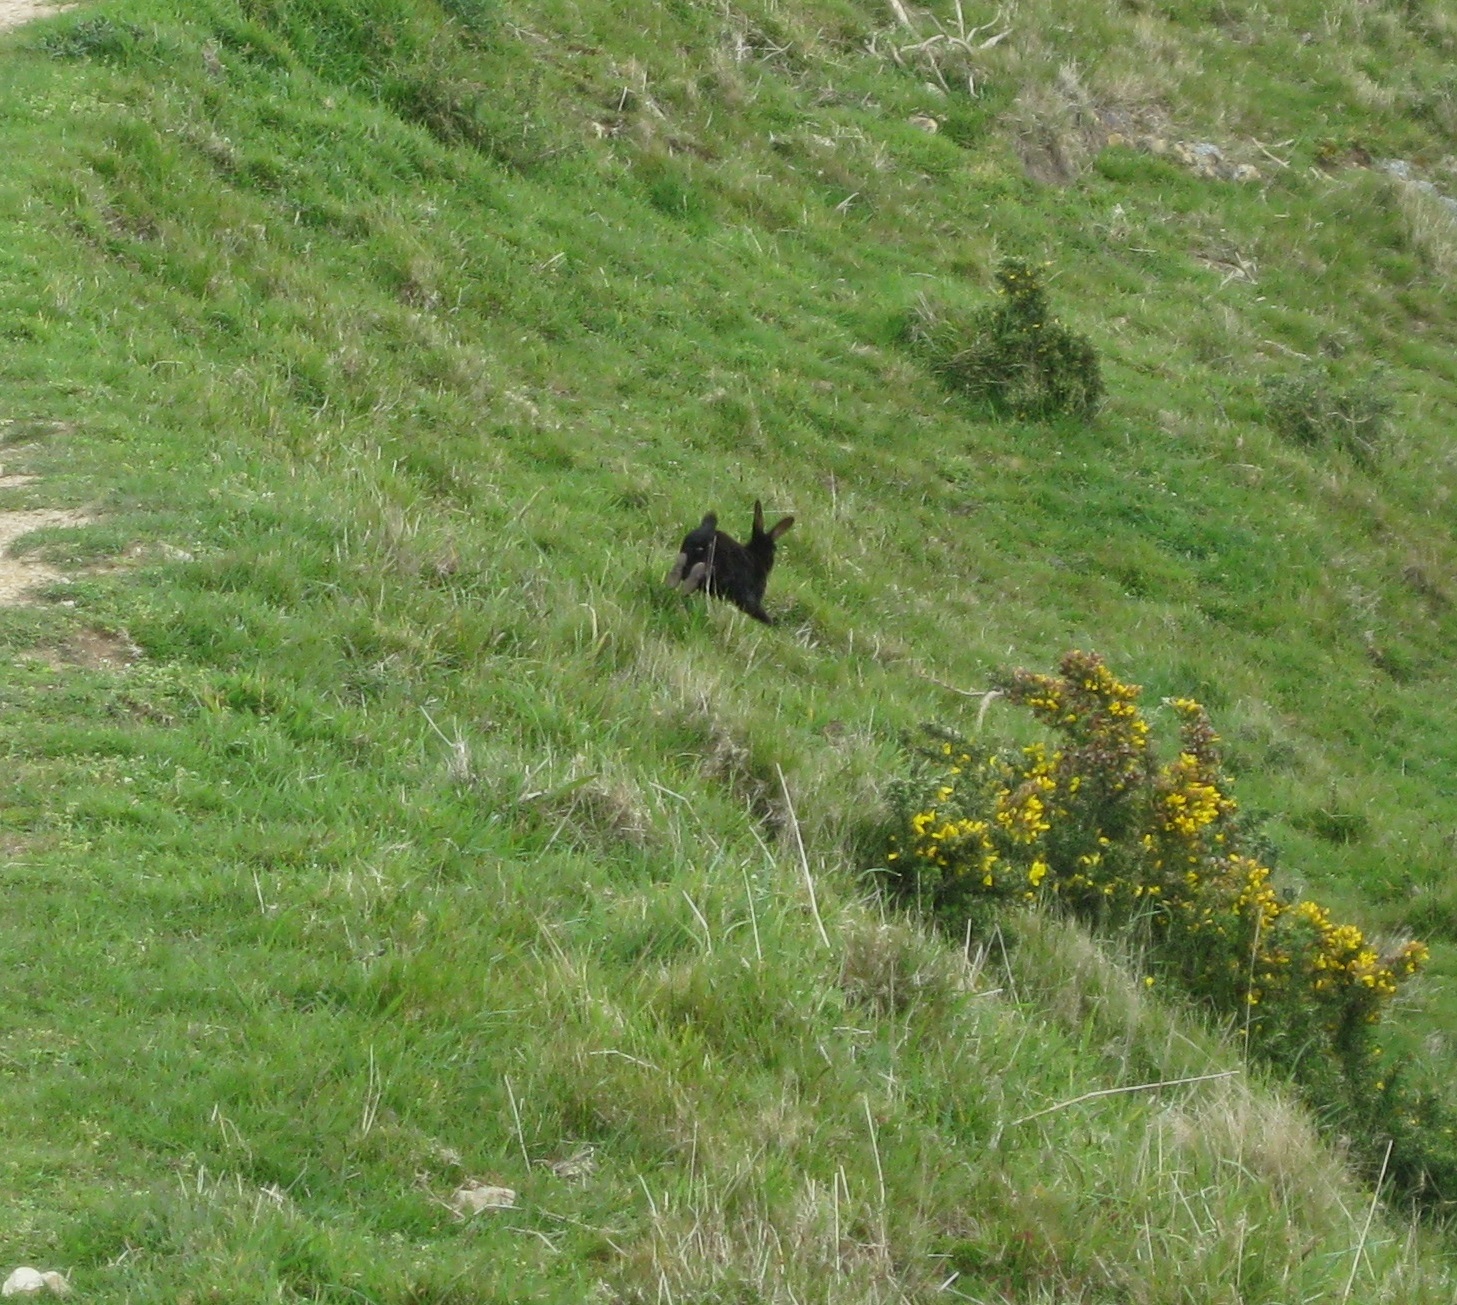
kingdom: Animalia
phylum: Chordata
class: Mammalia
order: Lagomorpha
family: Leporidae
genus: Oryctolagus
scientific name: Oryctolagus cuniculus
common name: European rabbit
